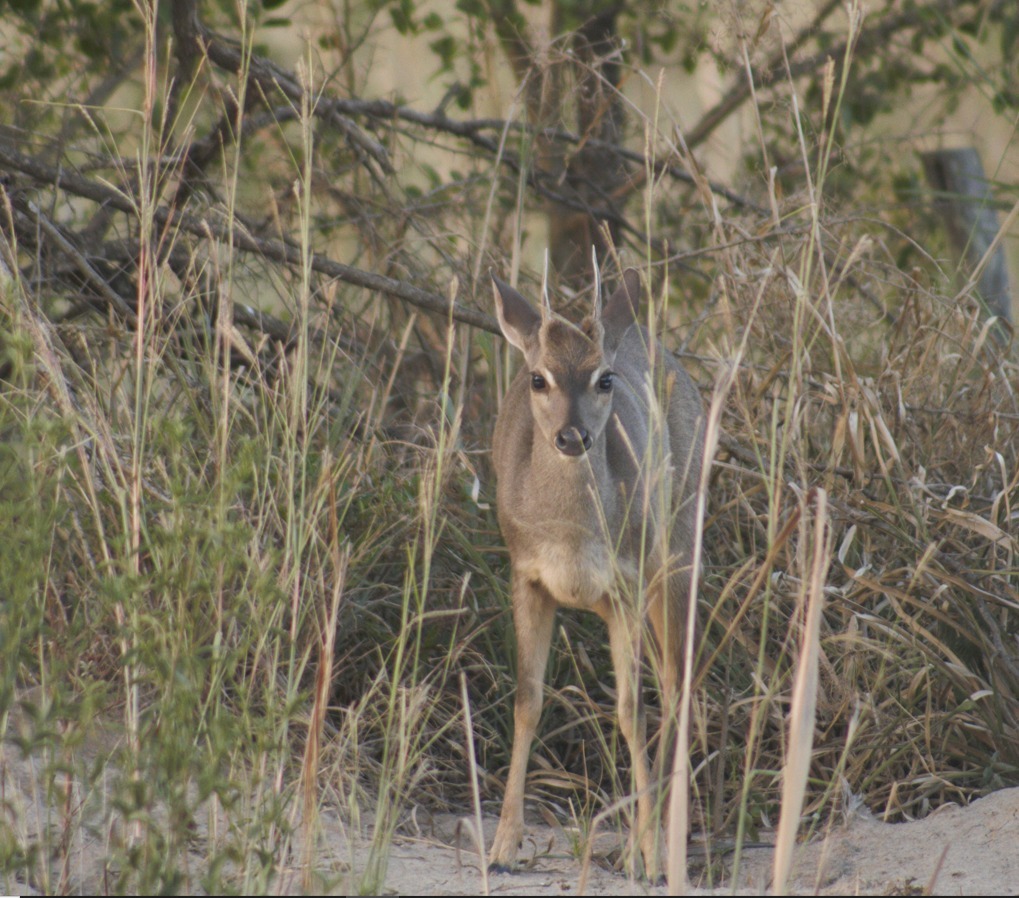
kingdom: Animalia
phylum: Chordata
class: Mammalia
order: Artiodactyla
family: Cervidae
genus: Mazama
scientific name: Mazama gouazoubira
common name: Gray brocket
